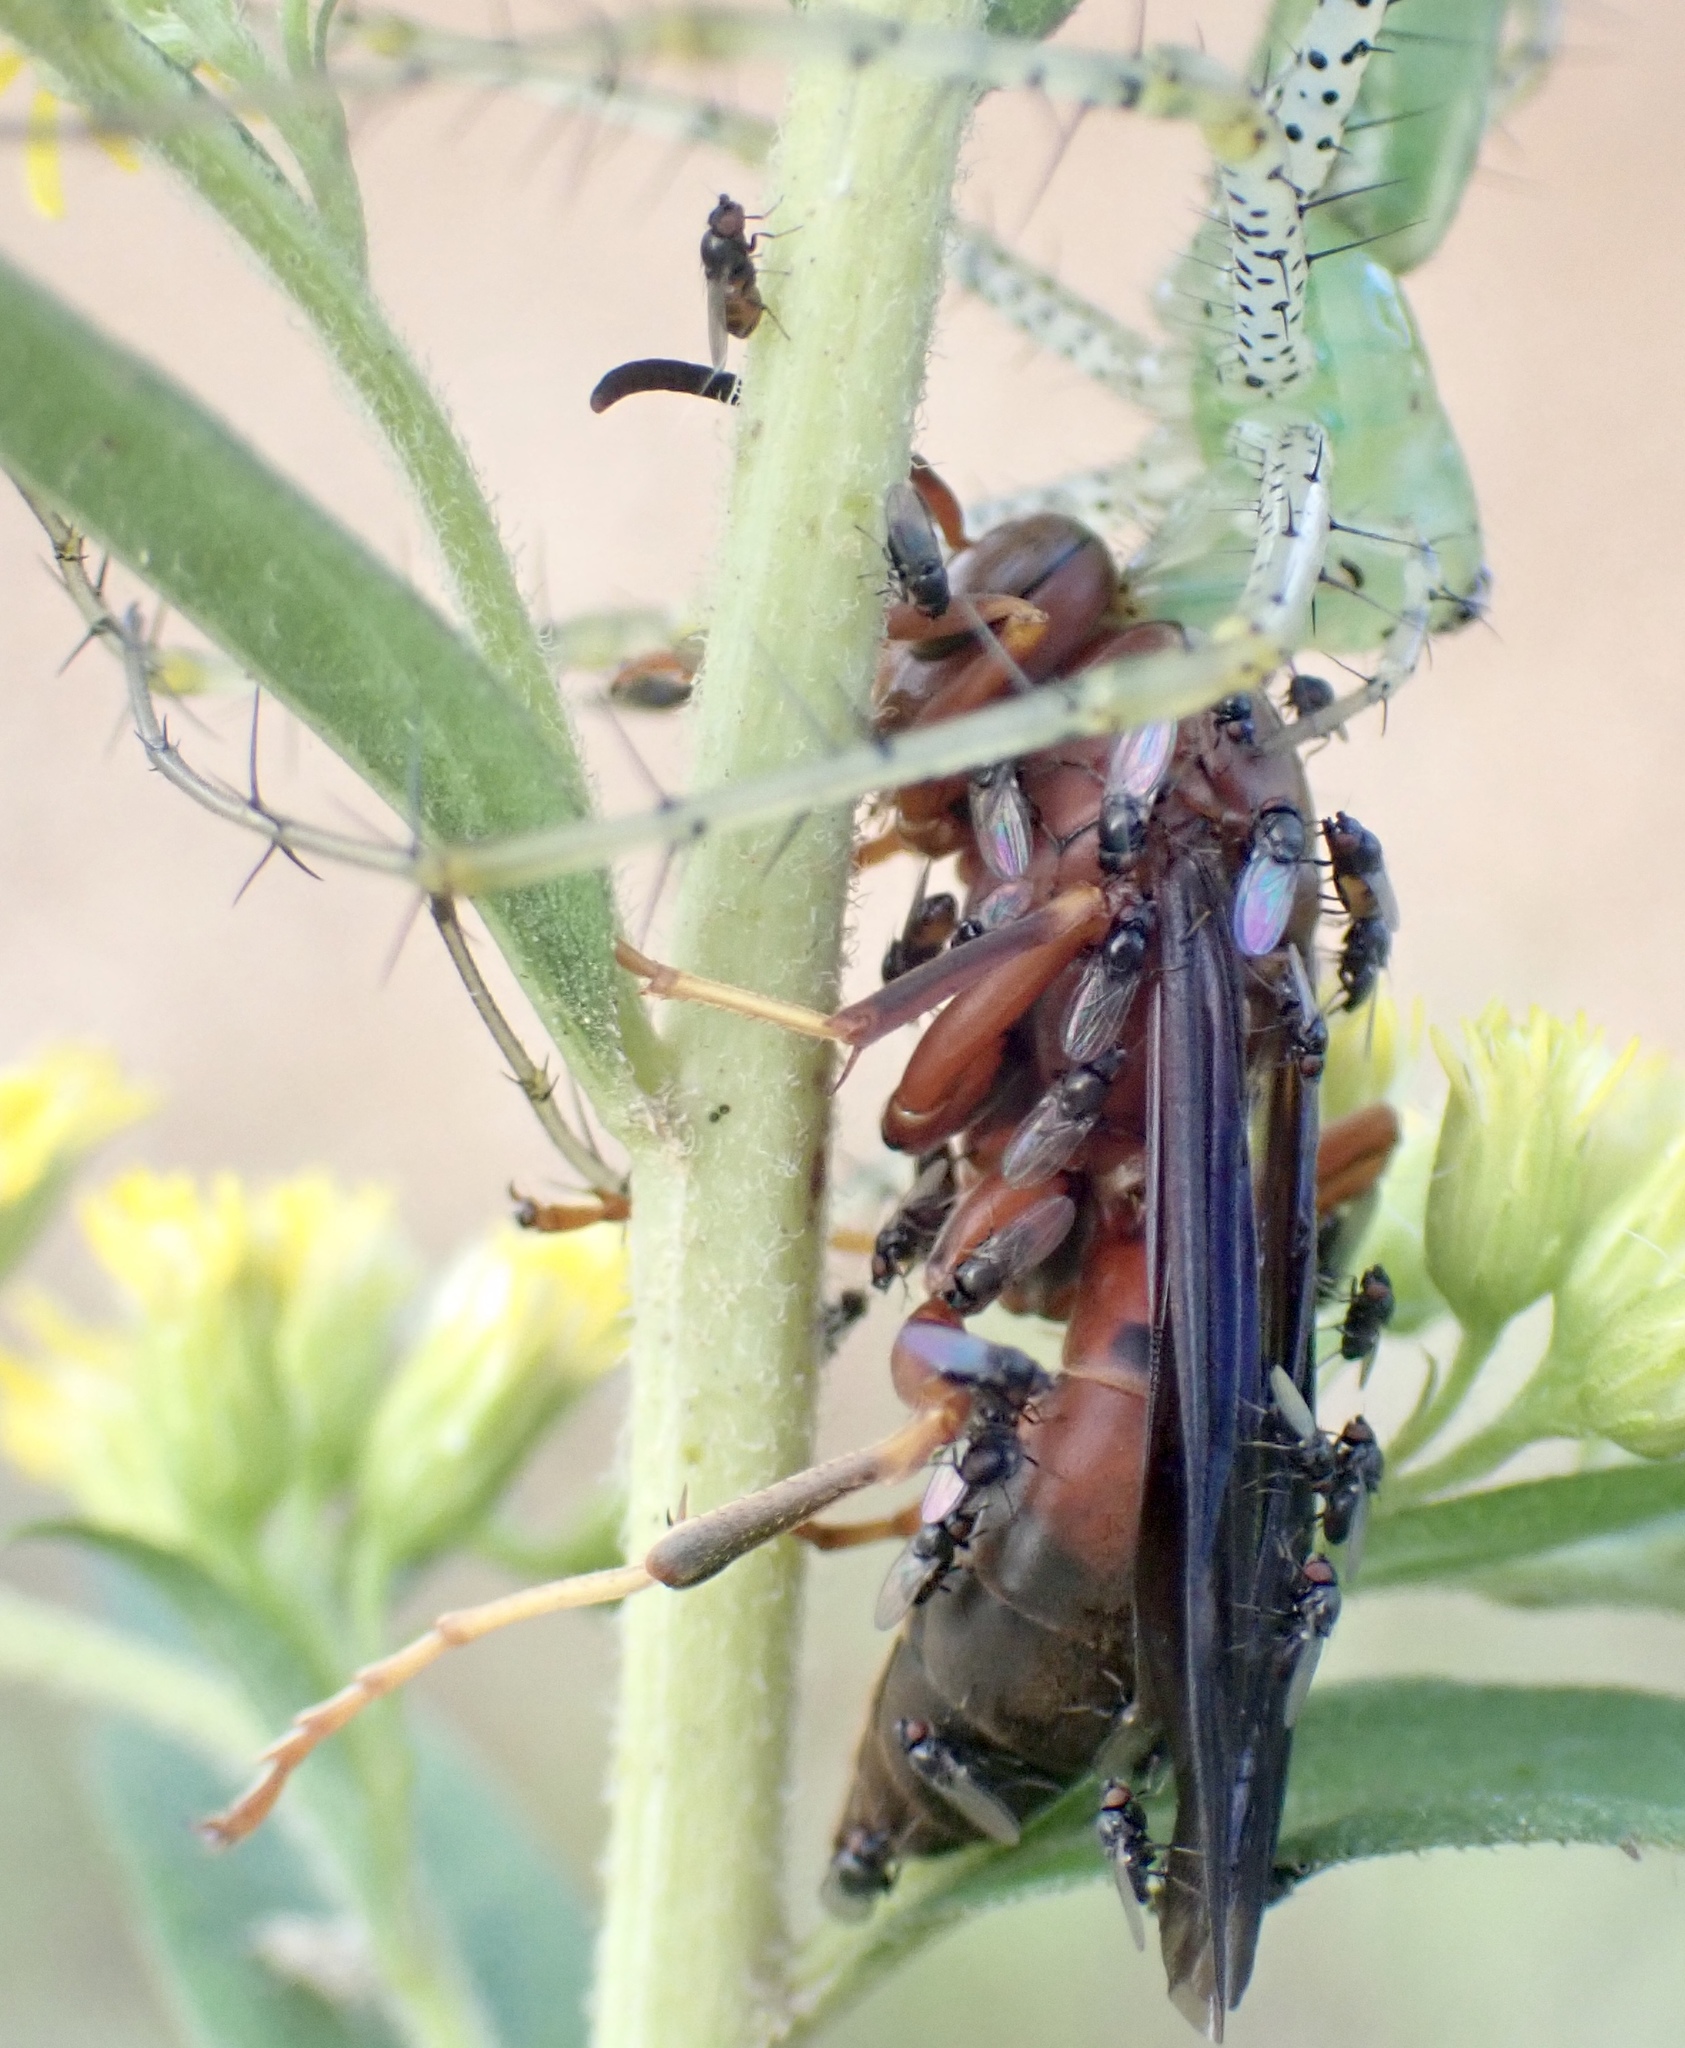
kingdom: Animalia
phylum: Arthropoda
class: Arachnida
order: Araneae
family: Oxyopidae
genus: Peucetia
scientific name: Peucetia viridans
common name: Lynx spiders
